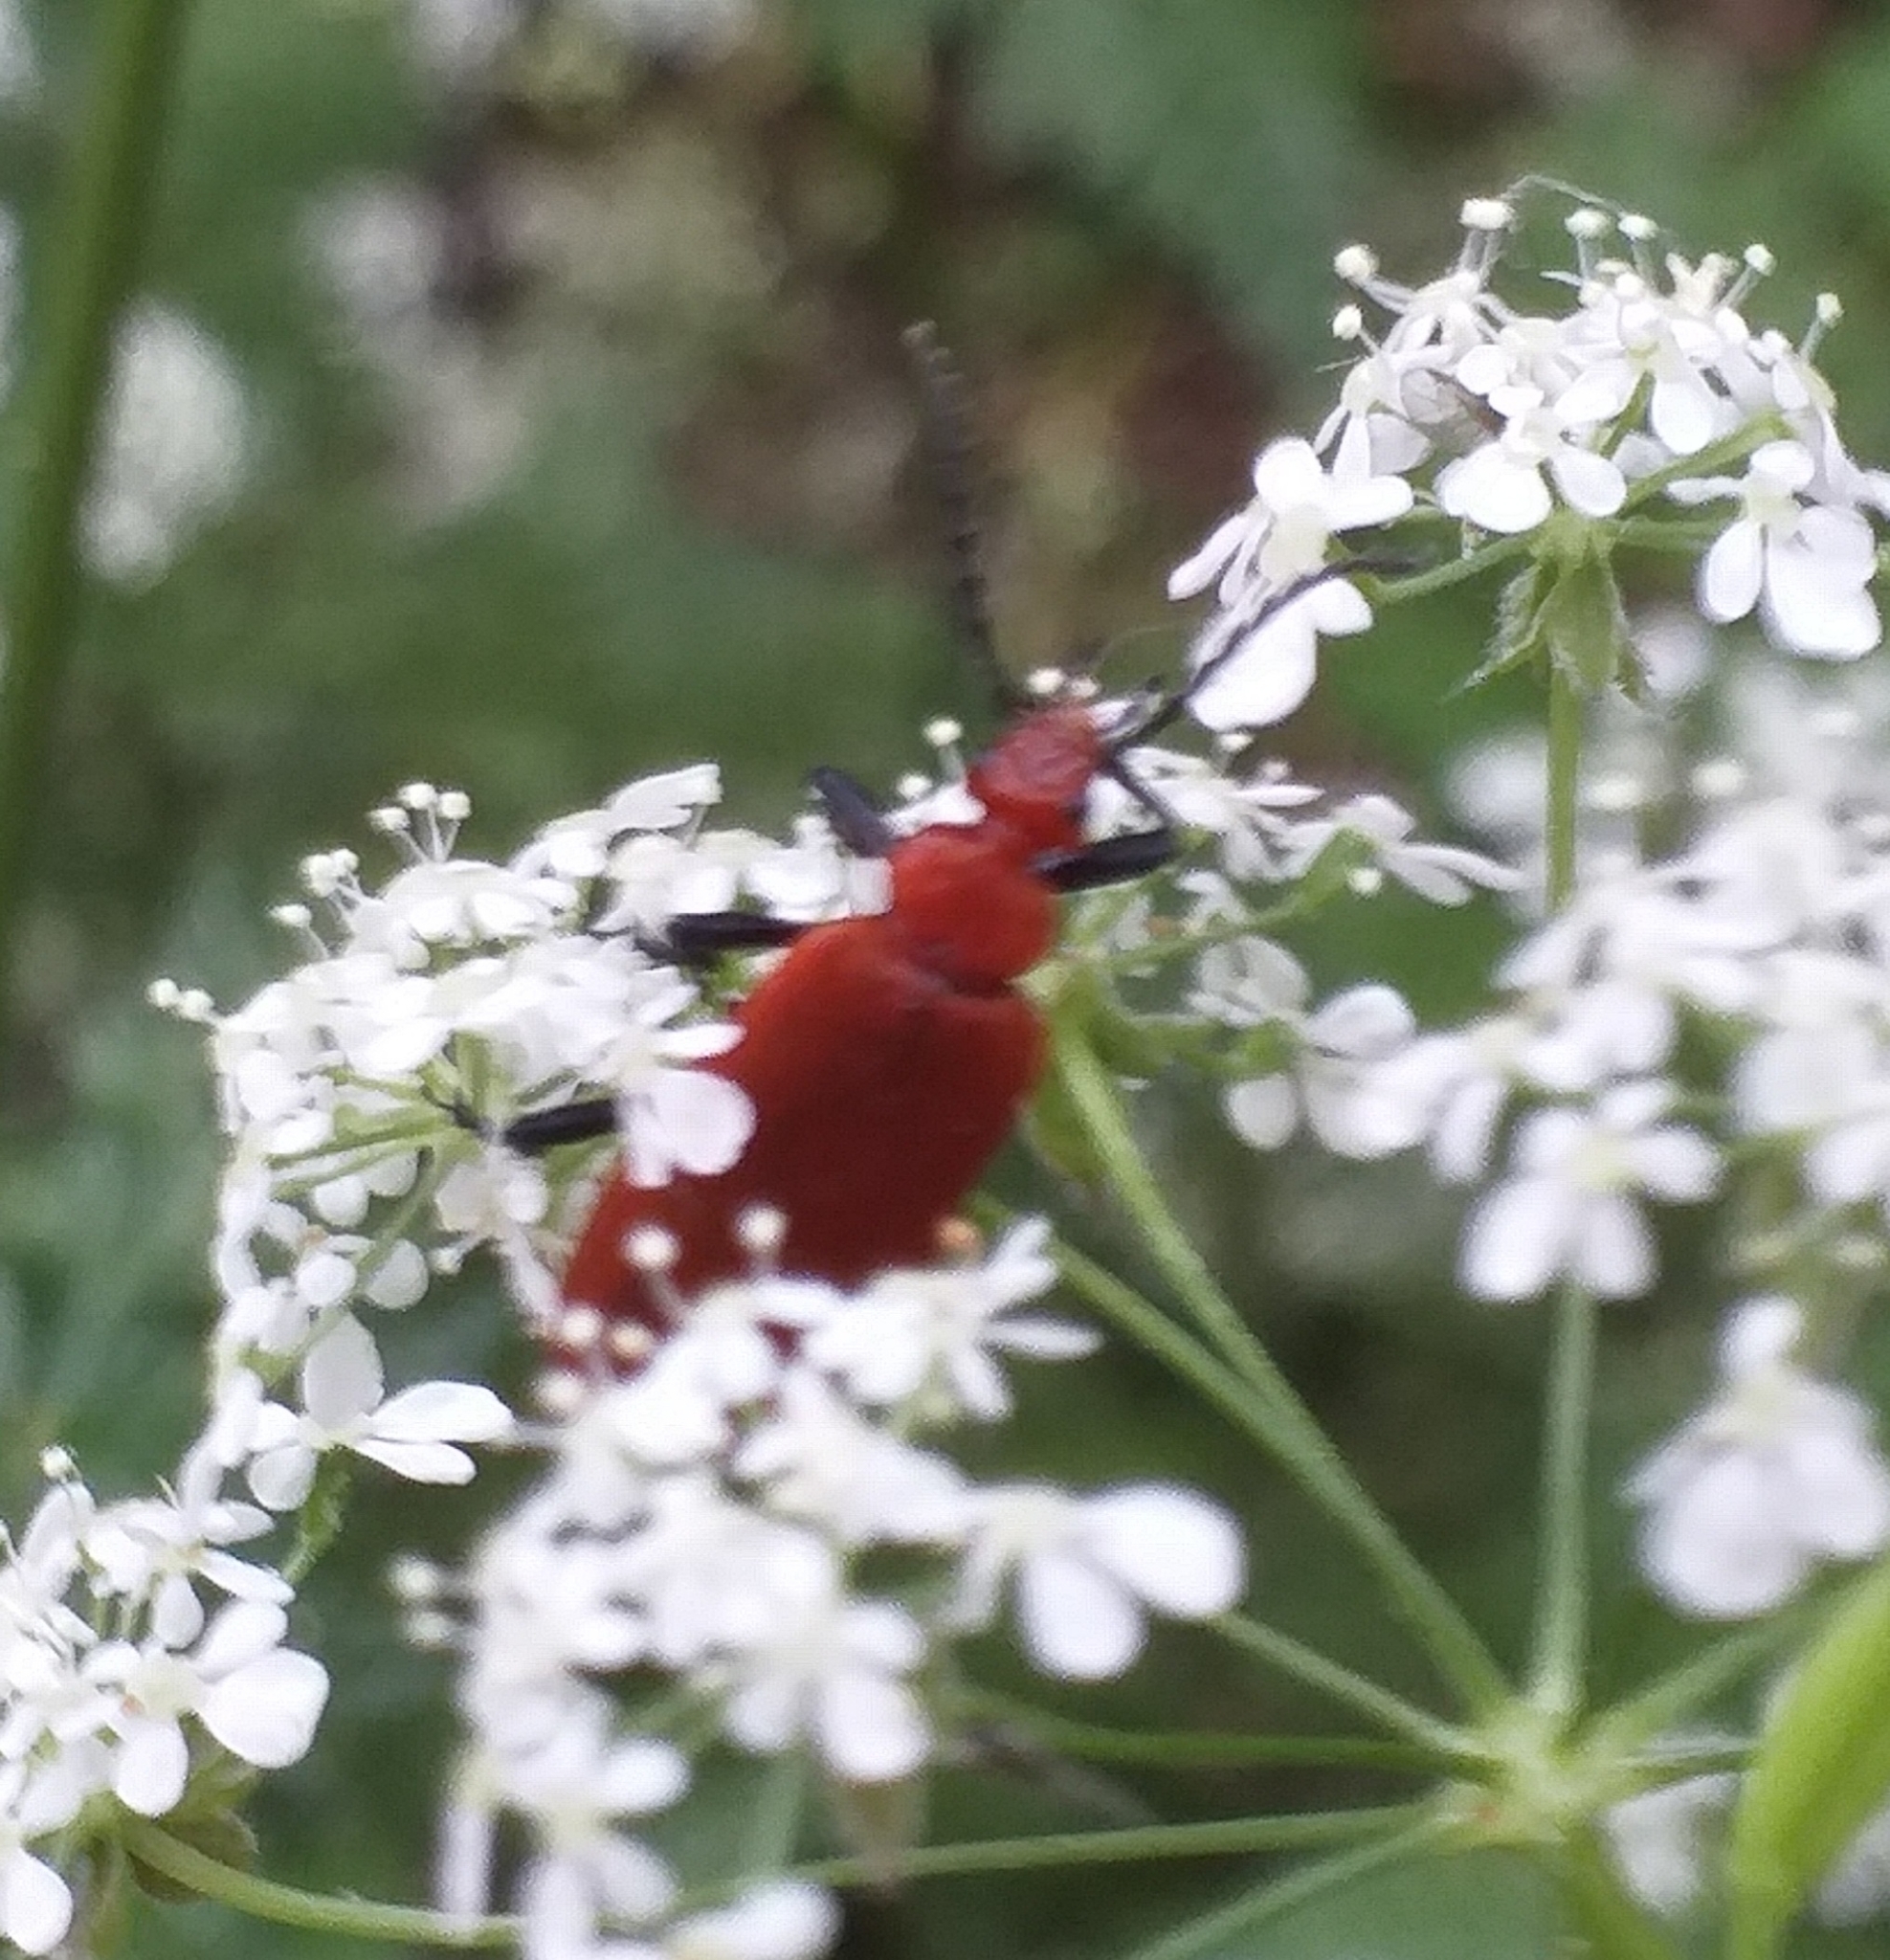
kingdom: Animalia
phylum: Arthropoda
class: Insecta
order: Coleoptera
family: Pyrochroidae
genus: Pyrochroa
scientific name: Pyrochroa serraticornis
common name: Red-headed cardinal beetle
